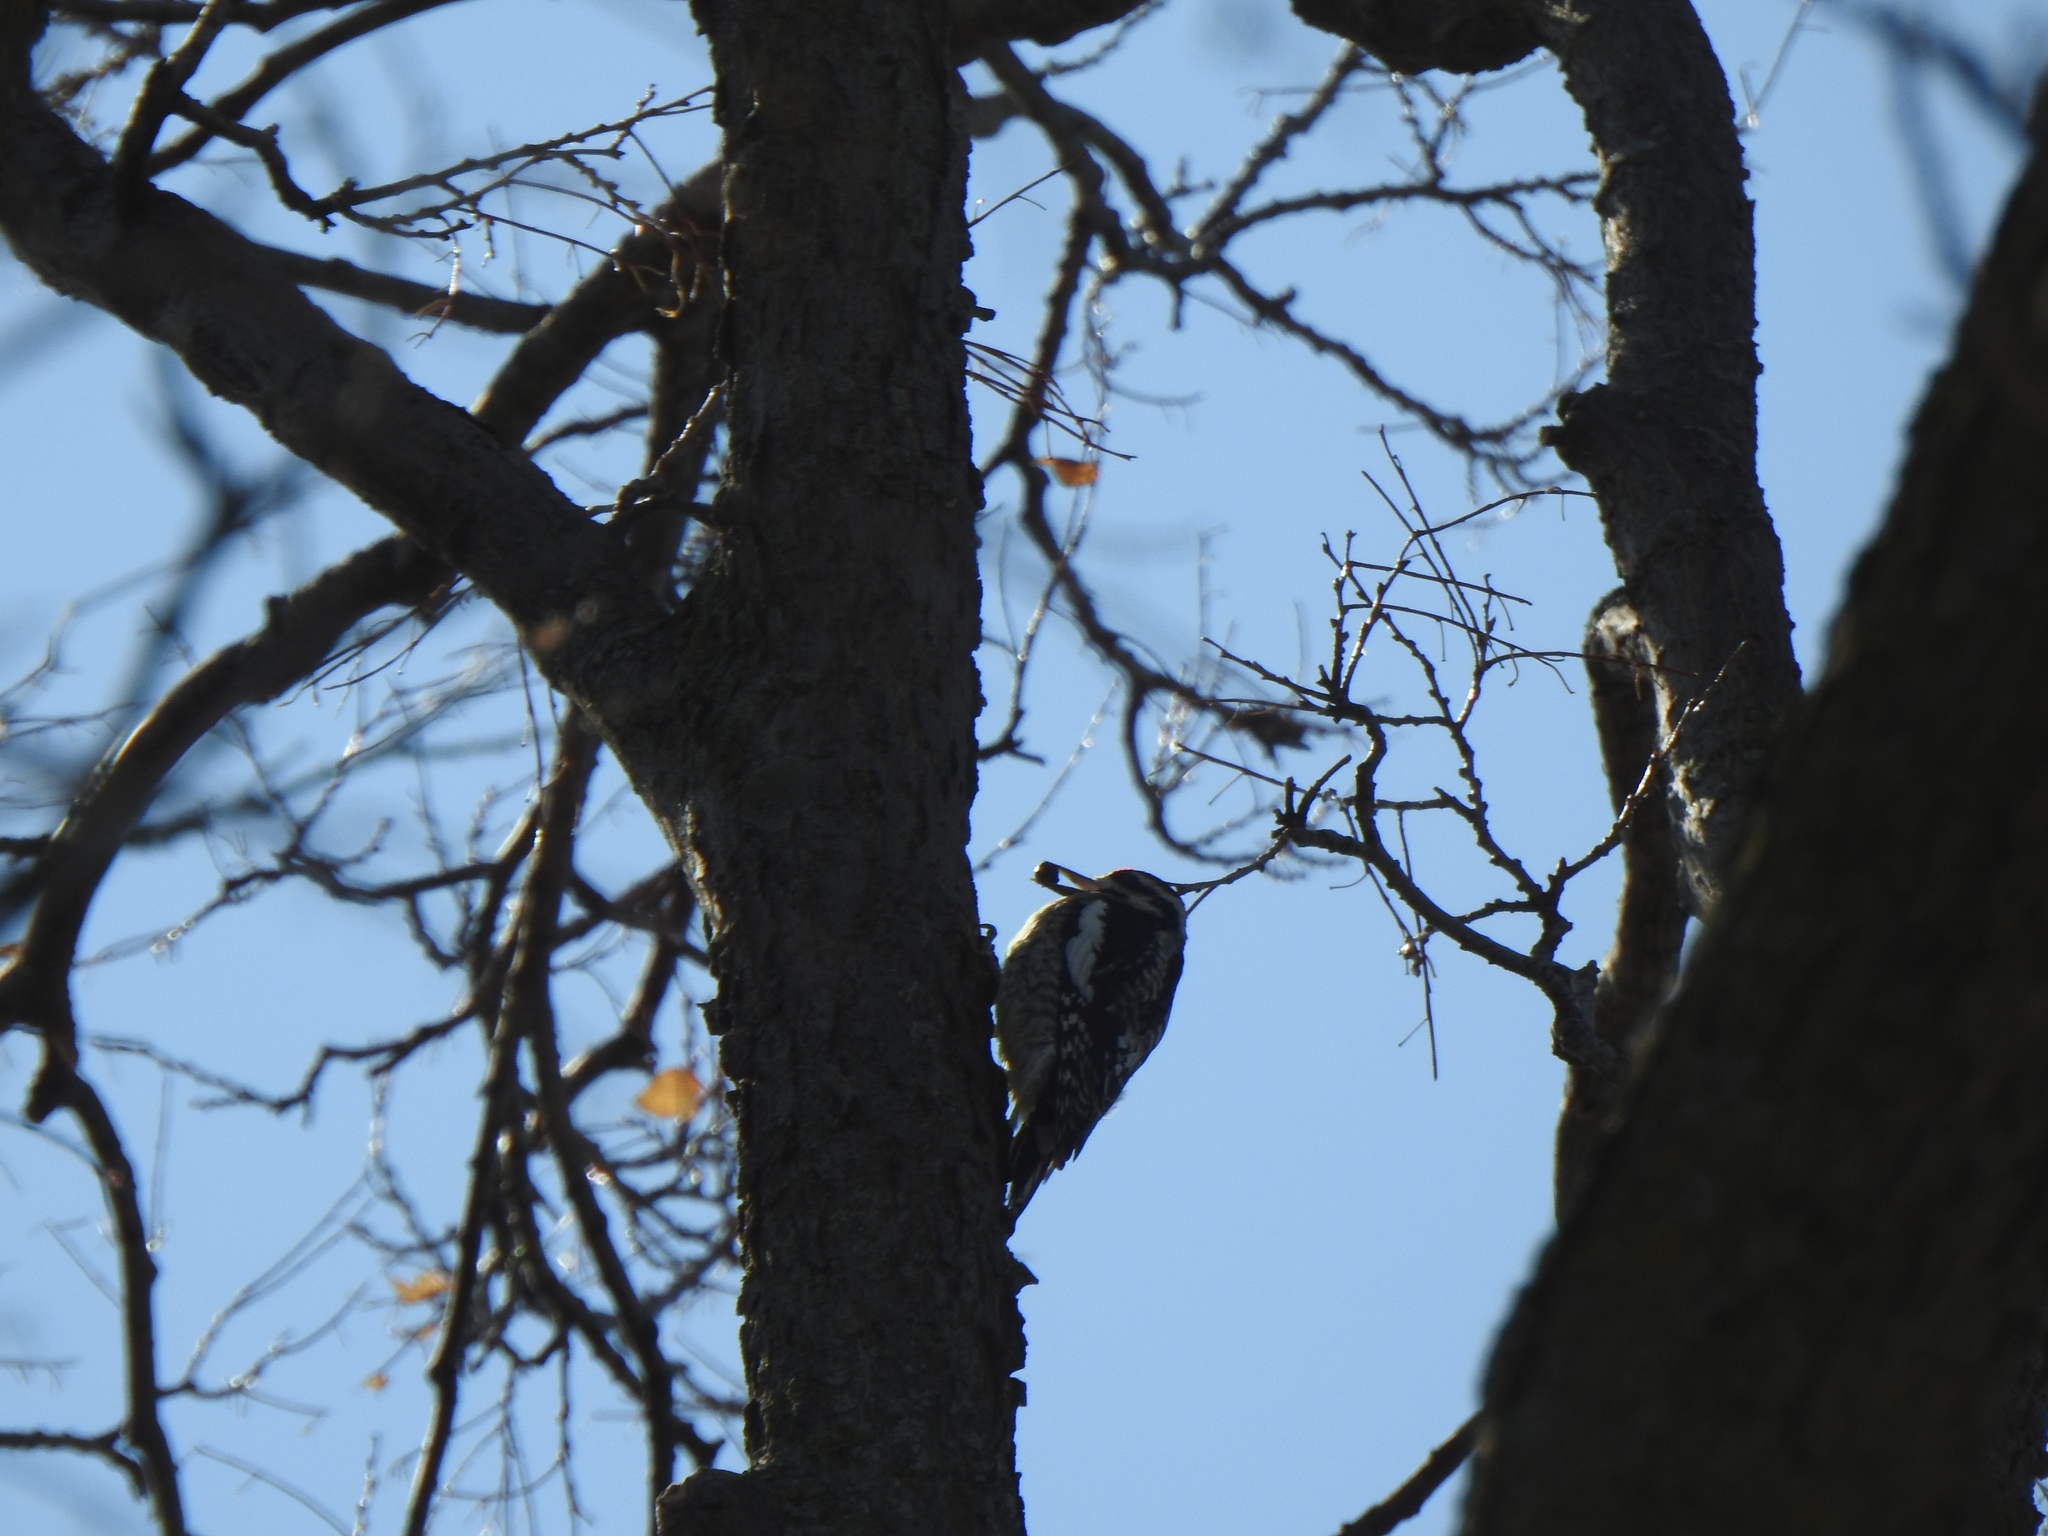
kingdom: Animalia
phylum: Chordata
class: Aves
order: Piciformes
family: Picidae
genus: Sphyrapicus
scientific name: Sphyrapicus varius
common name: Yellow-bellied sapsucker
